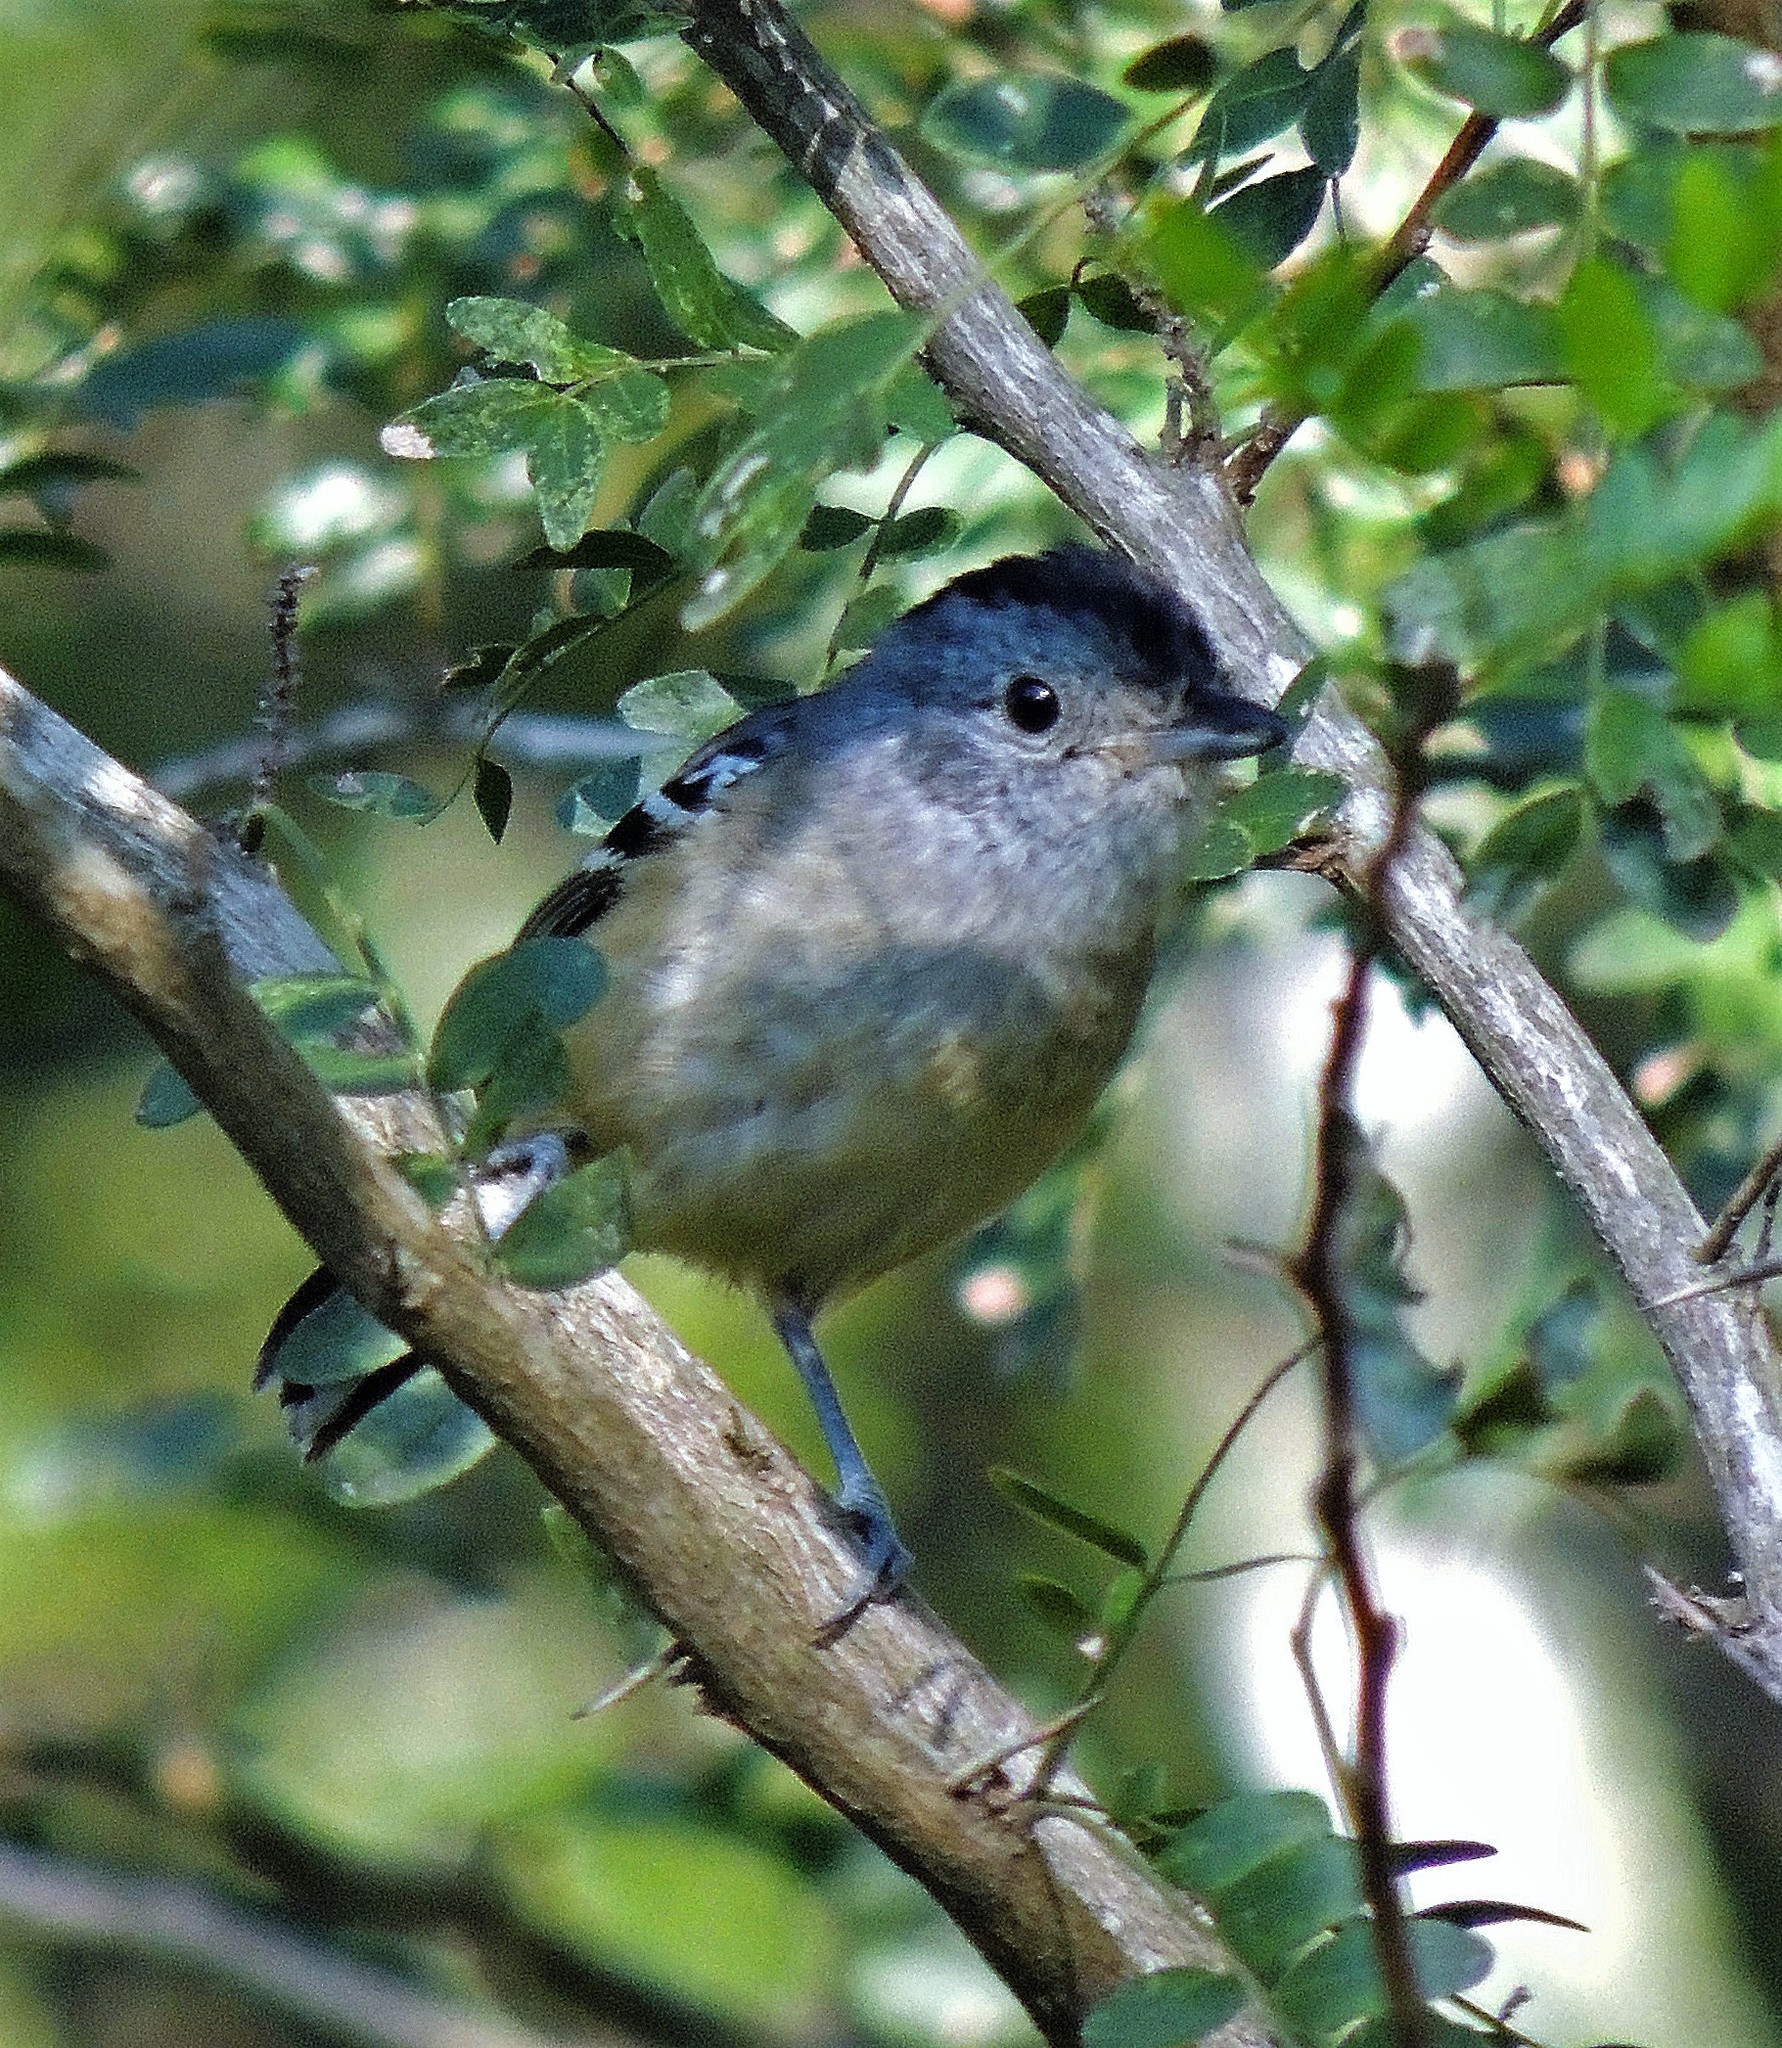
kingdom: Animalia
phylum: Chordata
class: Aves
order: Passeriformes
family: Thamnophilidae
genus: Thamnophilus
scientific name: Thamnophilus caerulescens
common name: Variable antshrike
